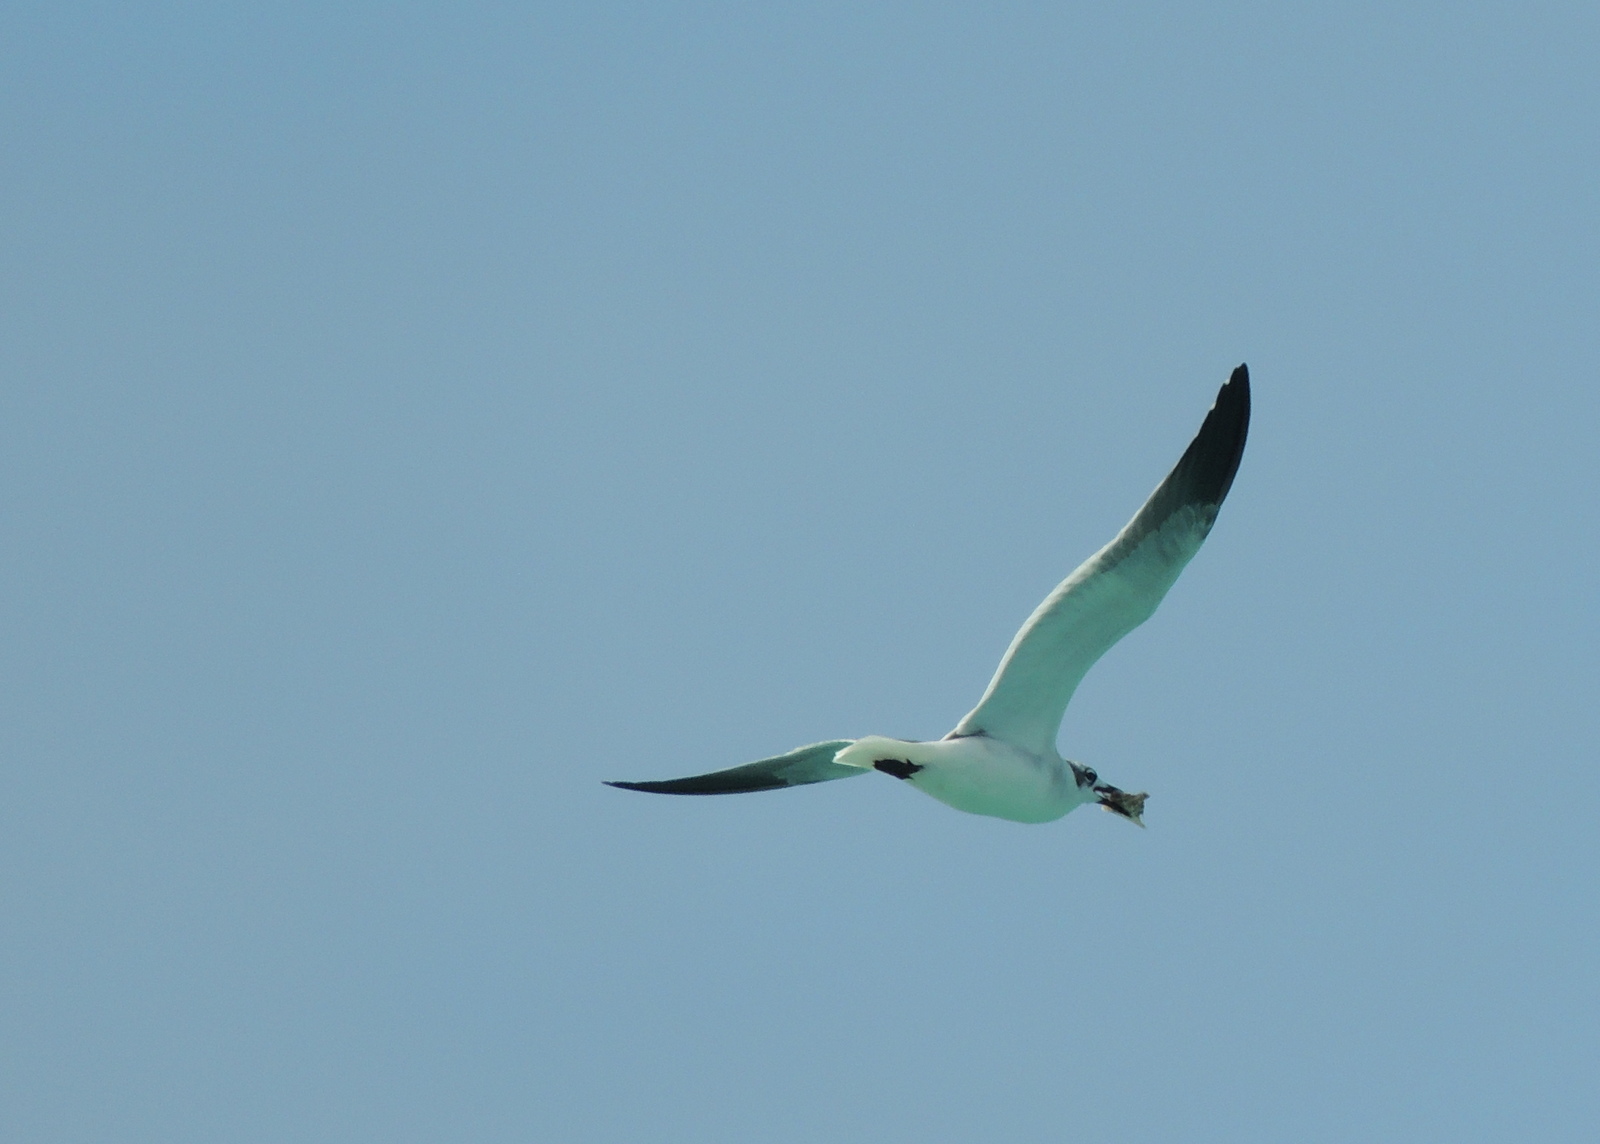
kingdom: Animalia
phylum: Chordata
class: Aves
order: Charadriiformes
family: Laridae
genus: Leucophaeus
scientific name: Leucophaeus atricilla
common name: Laughing gull
